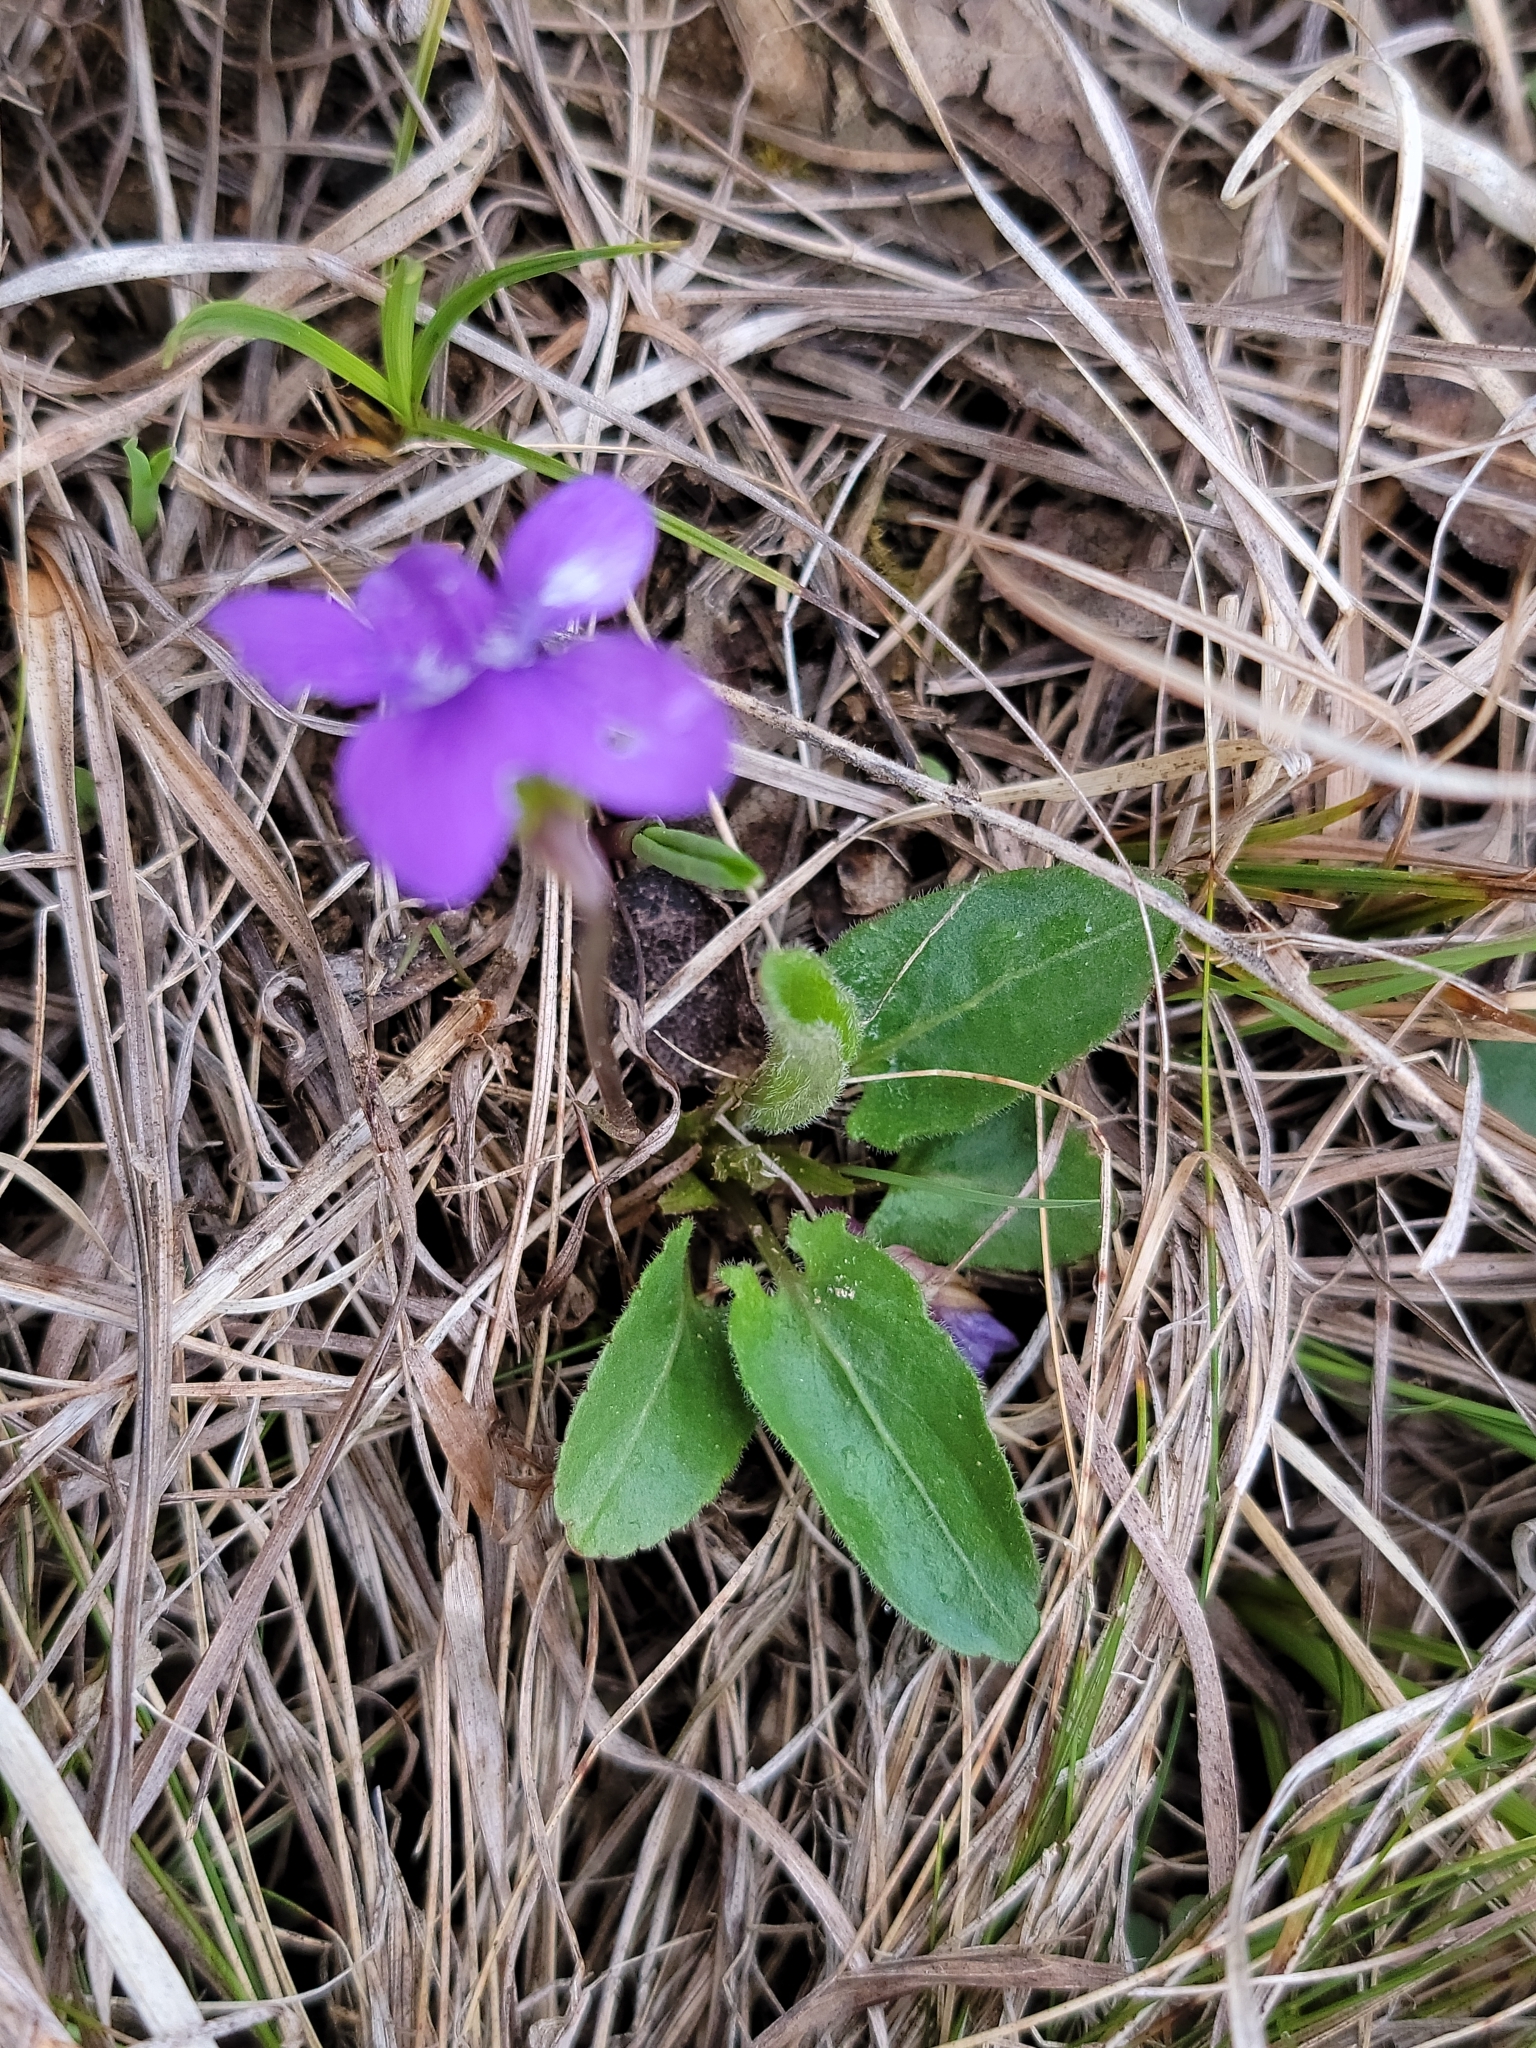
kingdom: Plantae
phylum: Tracheophyta
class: Magnoliopsida
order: Malpighiales
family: Violaceae
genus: Viola
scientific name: Viola sagittata
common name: Arrowhead violet
